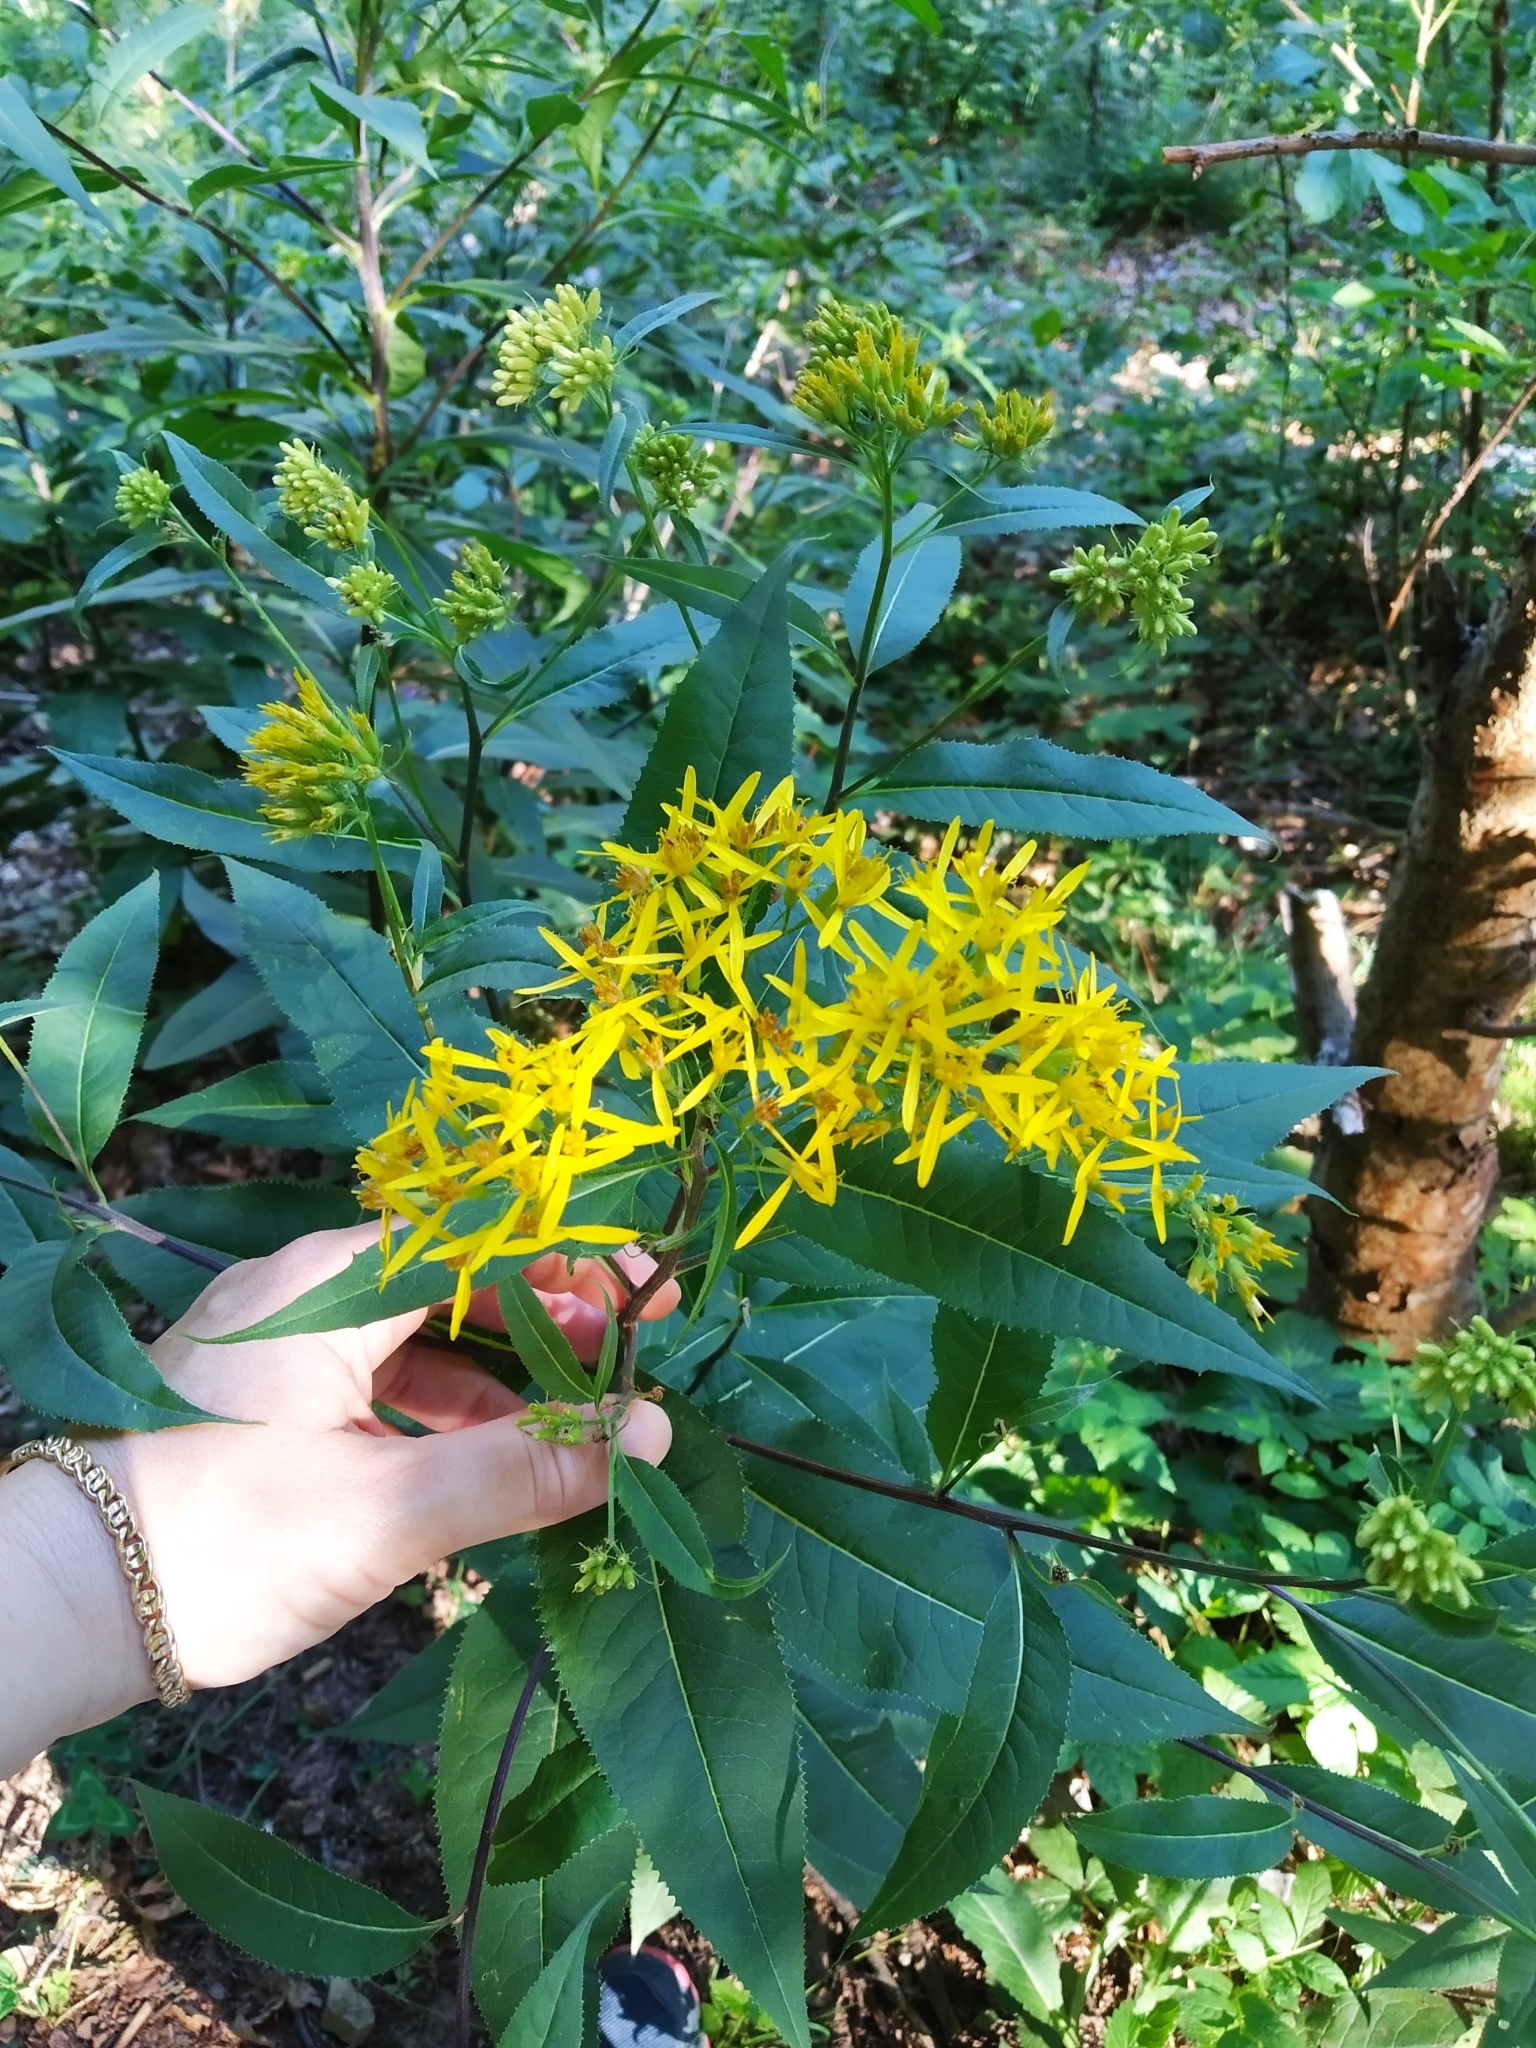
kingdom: Plantae
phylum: Tracheophyta
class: Magnoliopsida
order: Asterales
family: Asteraceae
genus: Senecio
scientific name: Senecio nemorensis
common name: Alpine ragwort
